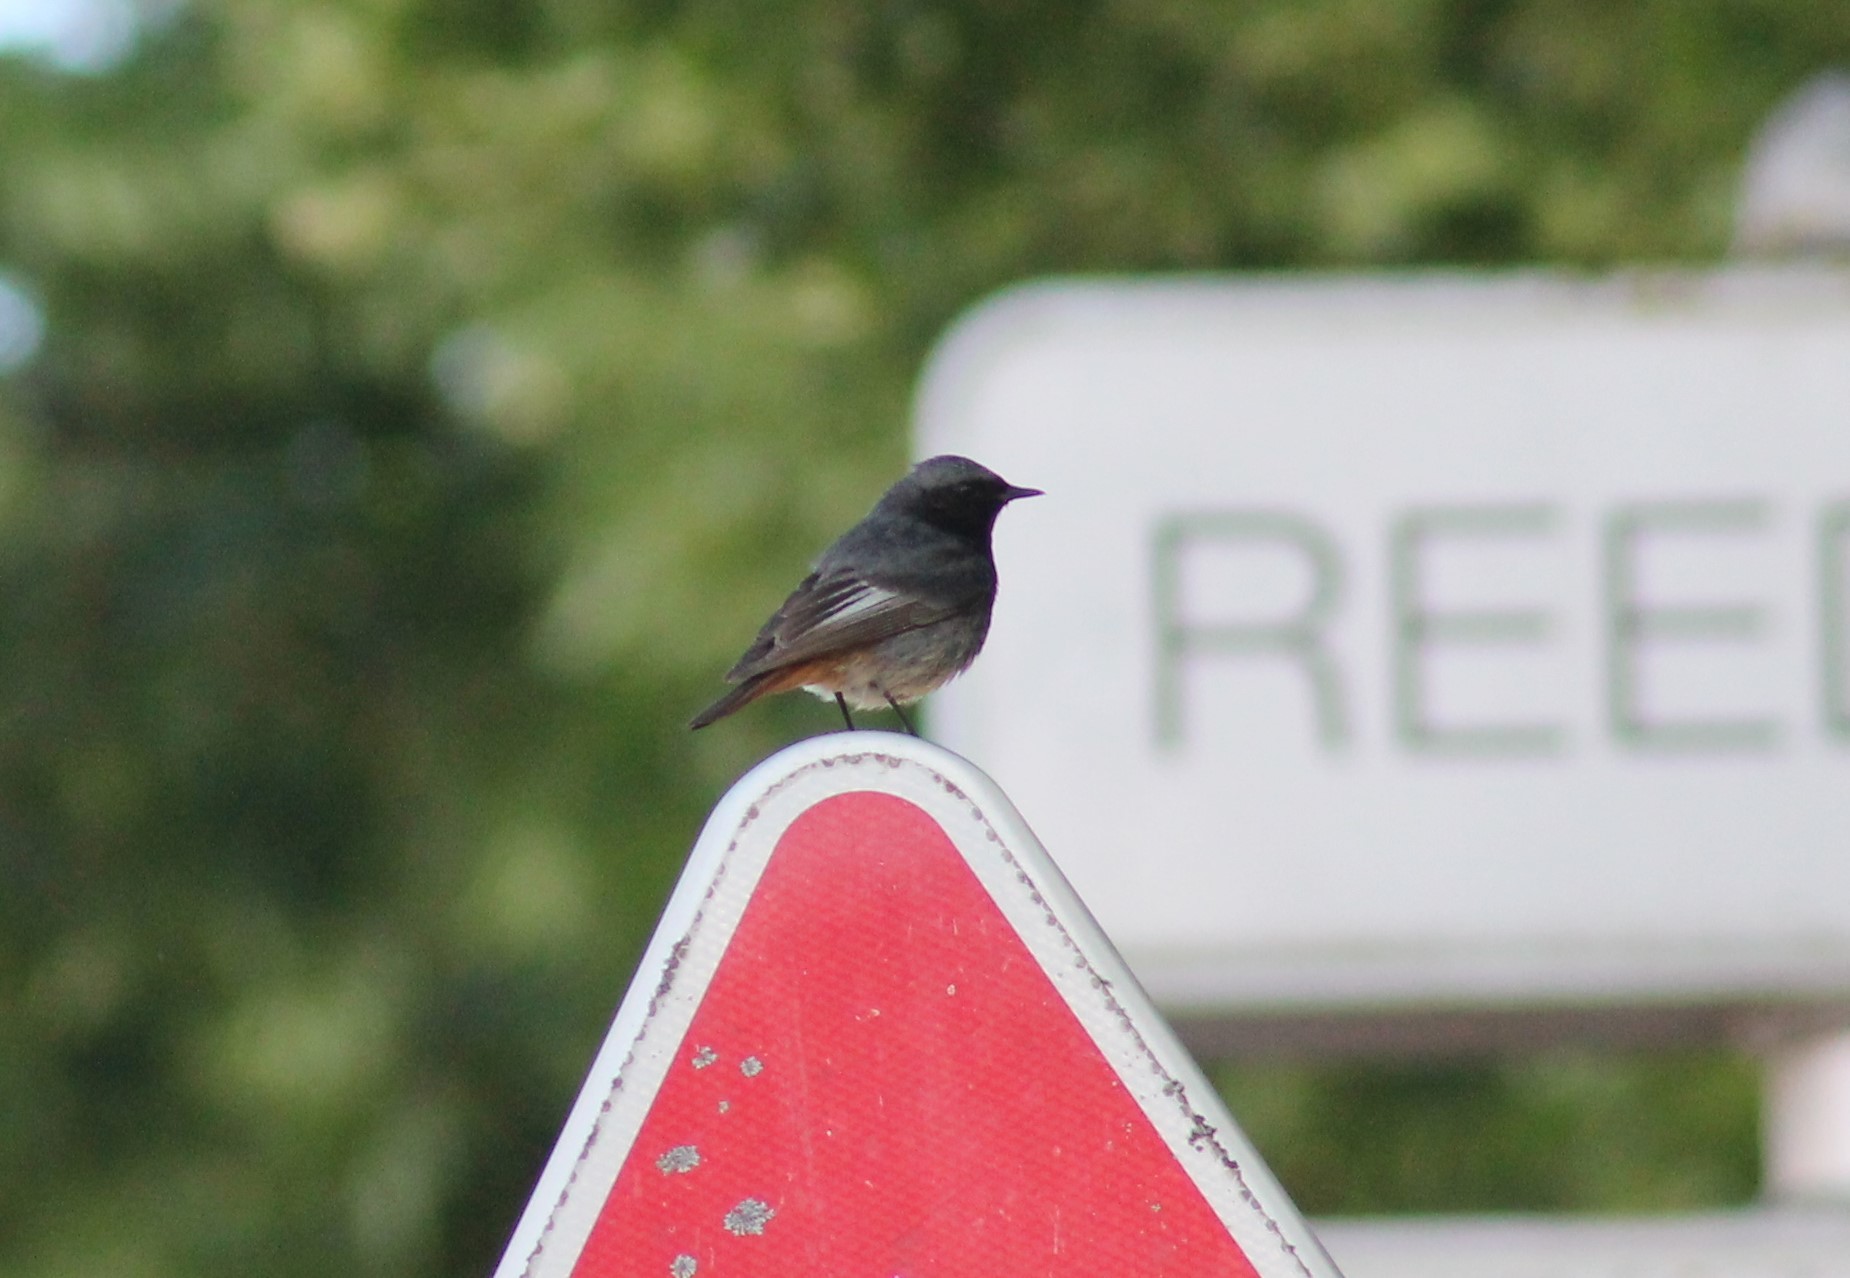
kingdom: Animalia
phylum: Chordata
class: Aves
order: Passeriformes
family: Muscicapidae
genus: Phoenicurus
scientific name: Phoenicurus ochruros
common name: Black redstart
